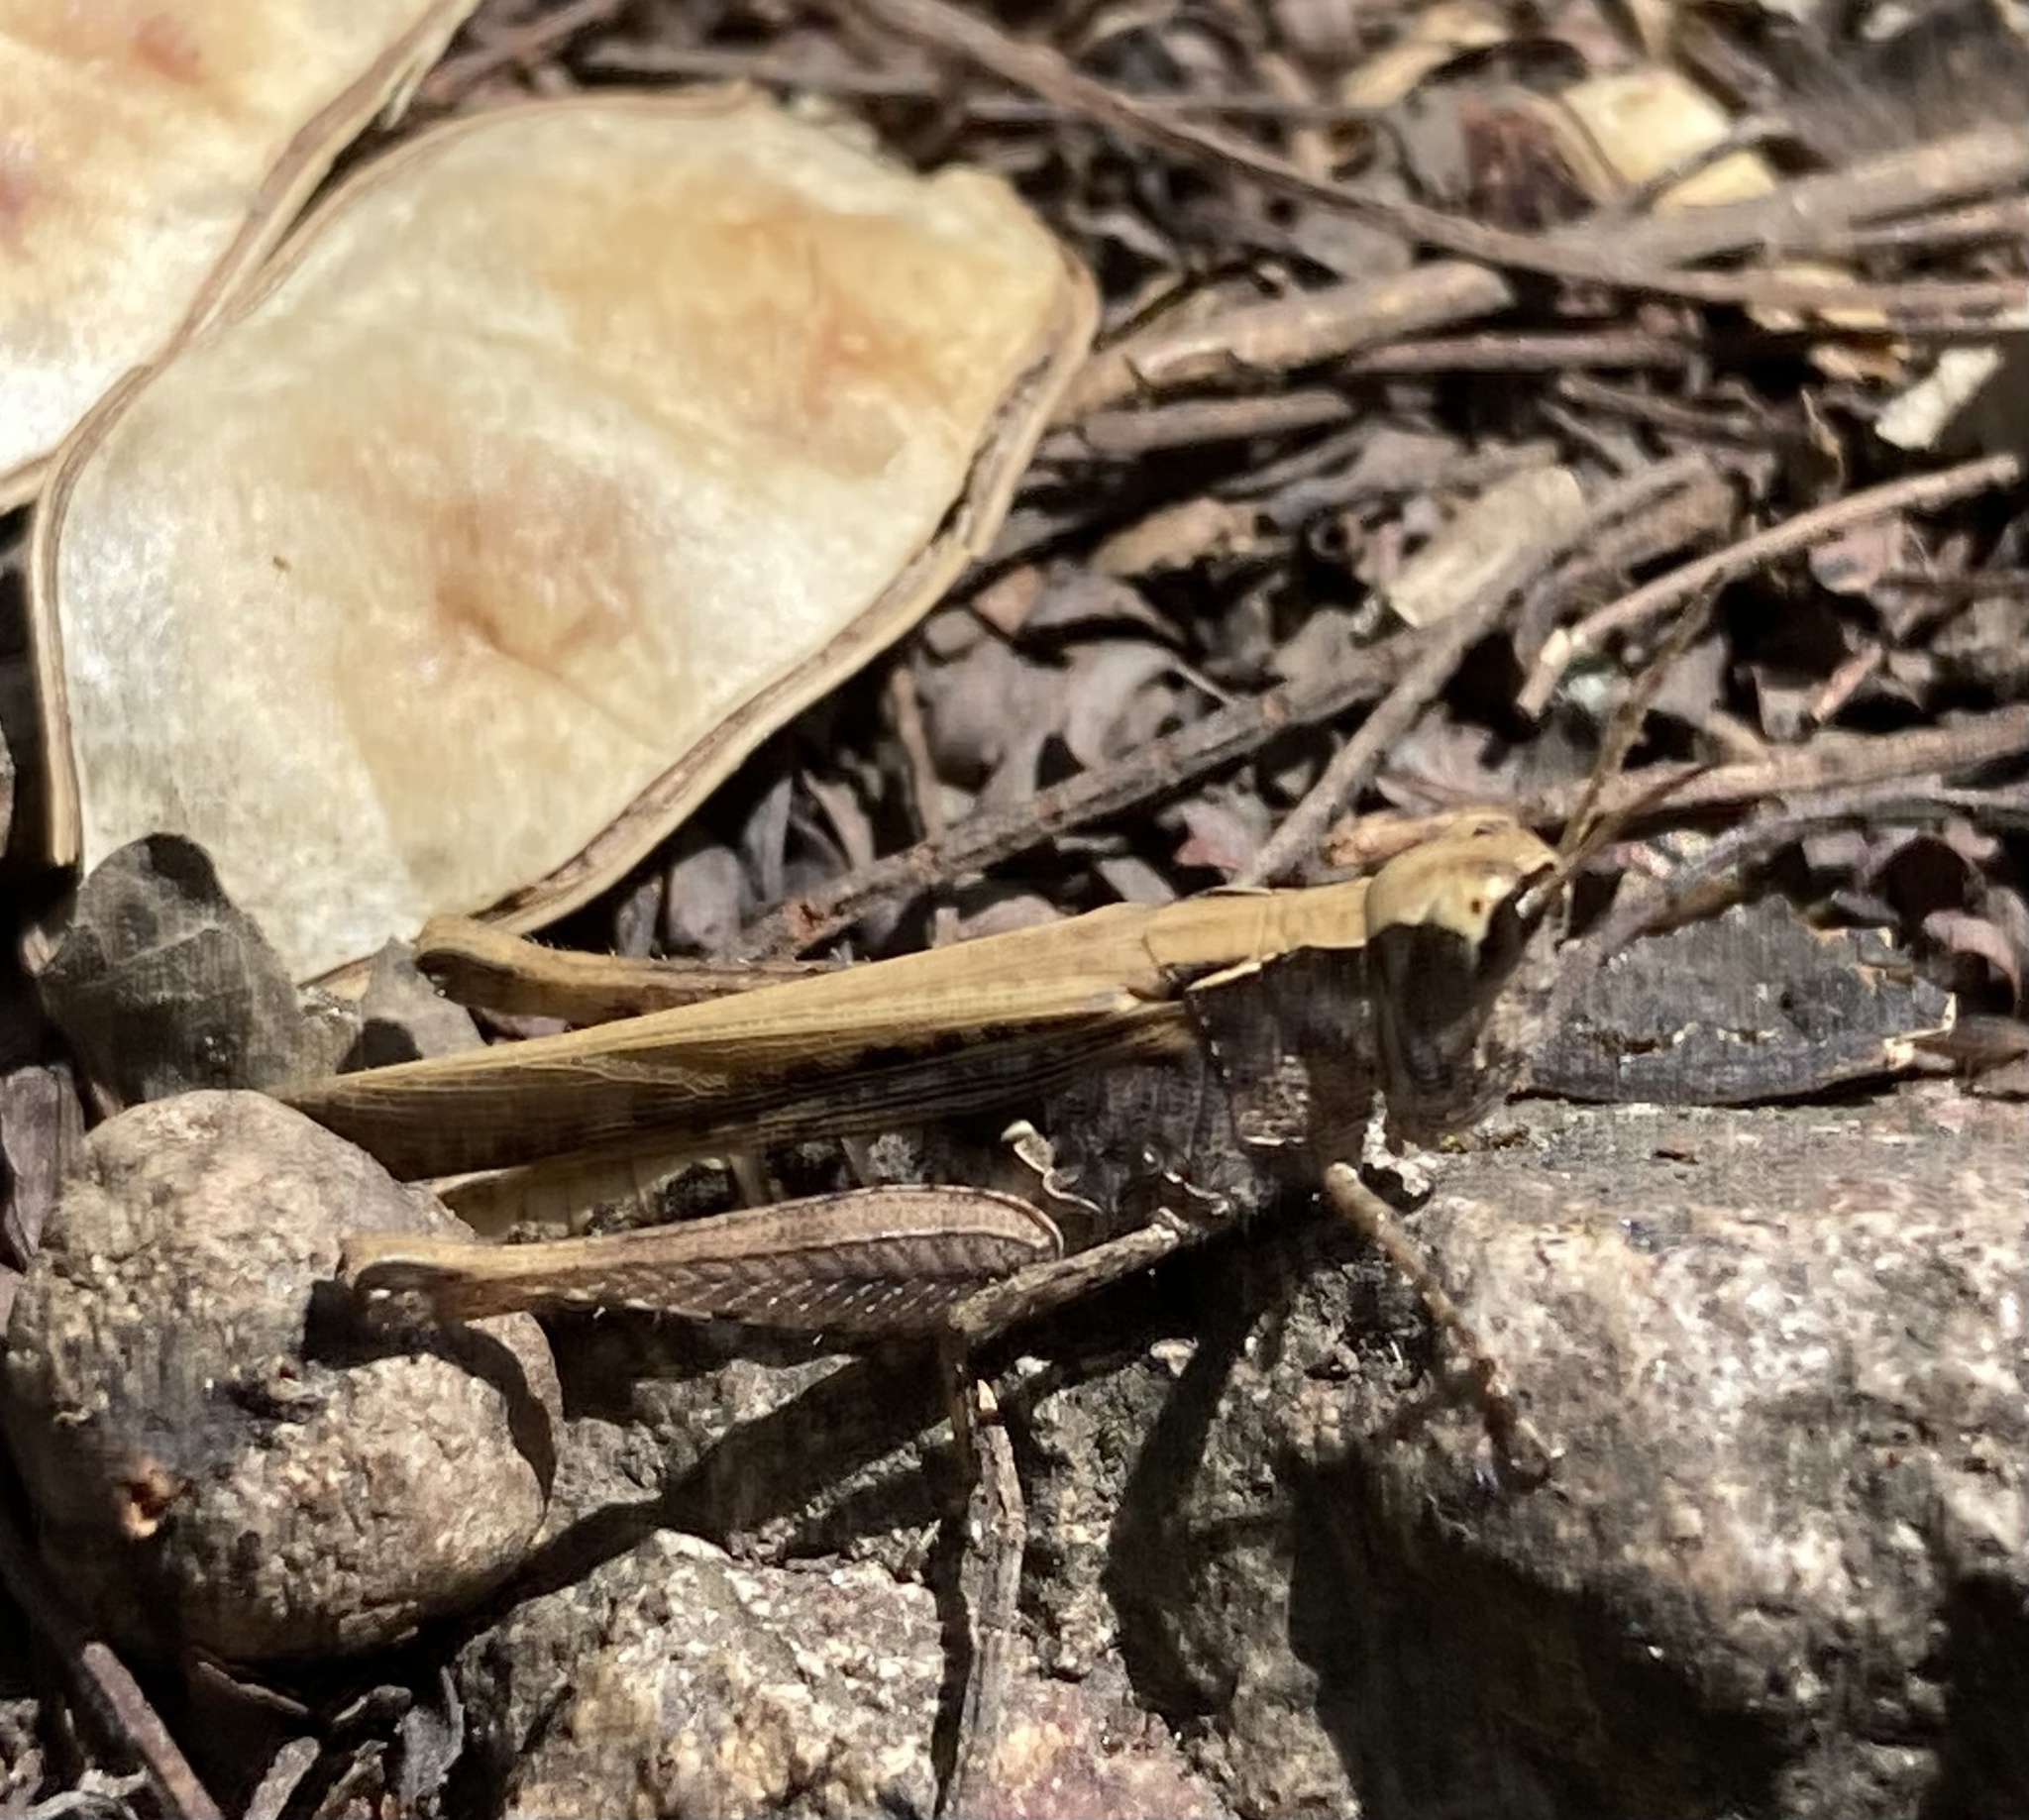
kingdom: Animalia
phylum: Arthropoda
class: Insecta
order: Orthoptera
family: Acrididae
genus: Orphulella
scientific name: Orphulella punctata
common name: Slant-faced grasshopper
